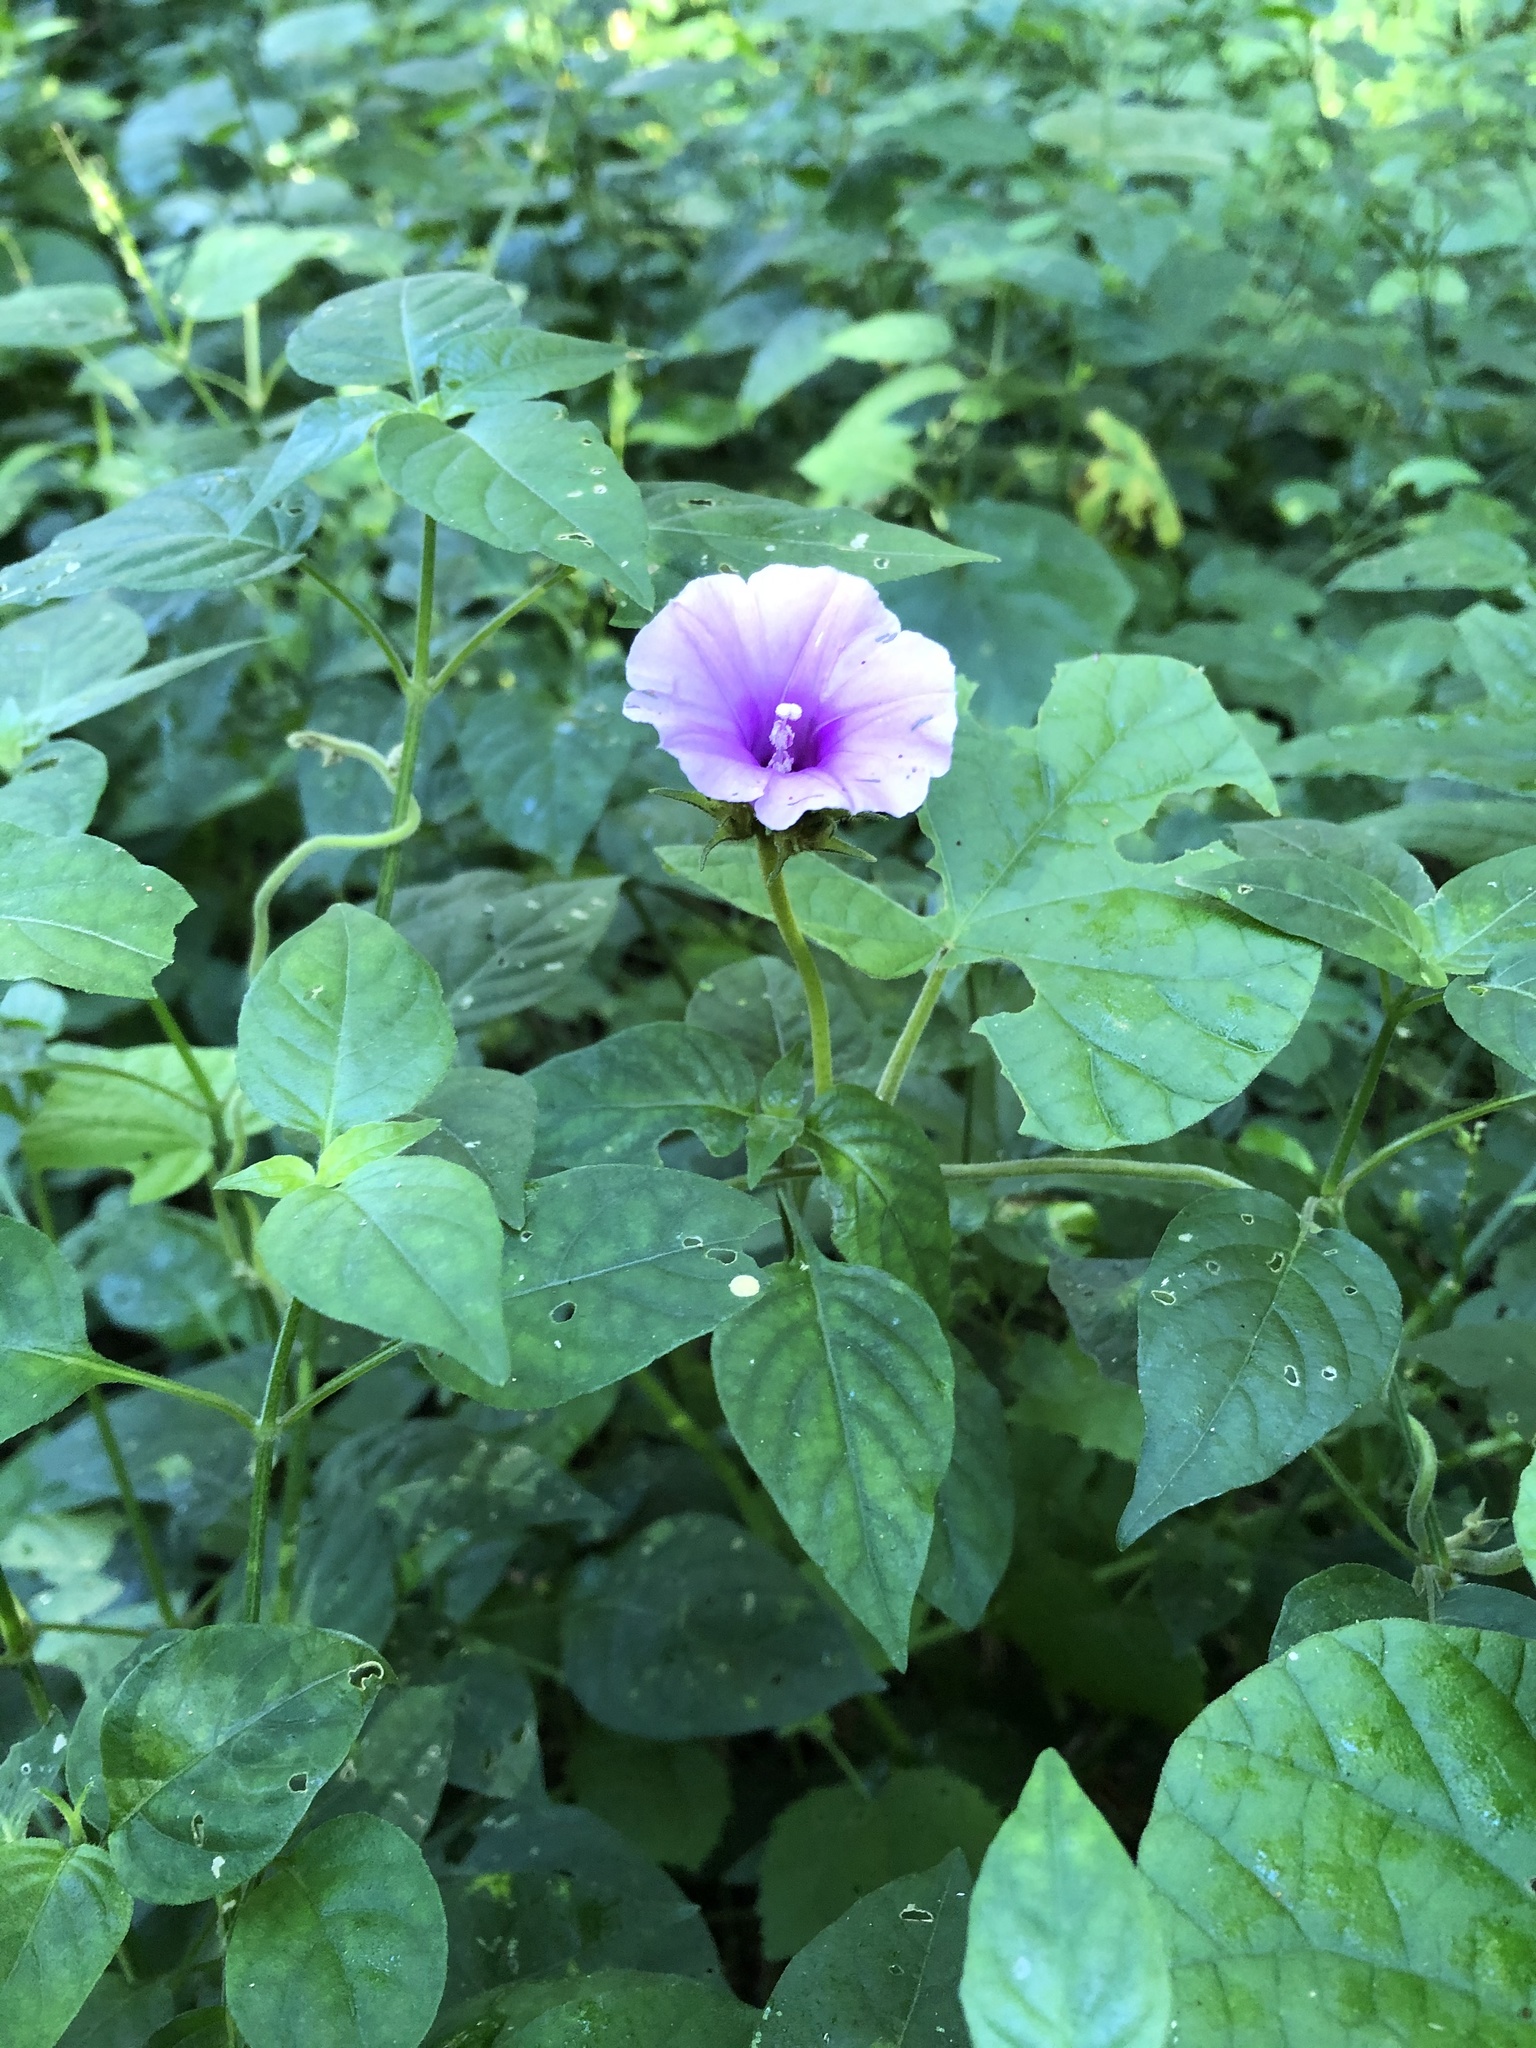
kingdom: Plantae
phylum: Tracheophyta
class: Magnoliopsida
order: Solanales
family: Convolvulaceae
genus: Ipomoea
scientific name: Ipomoea ficifolia
